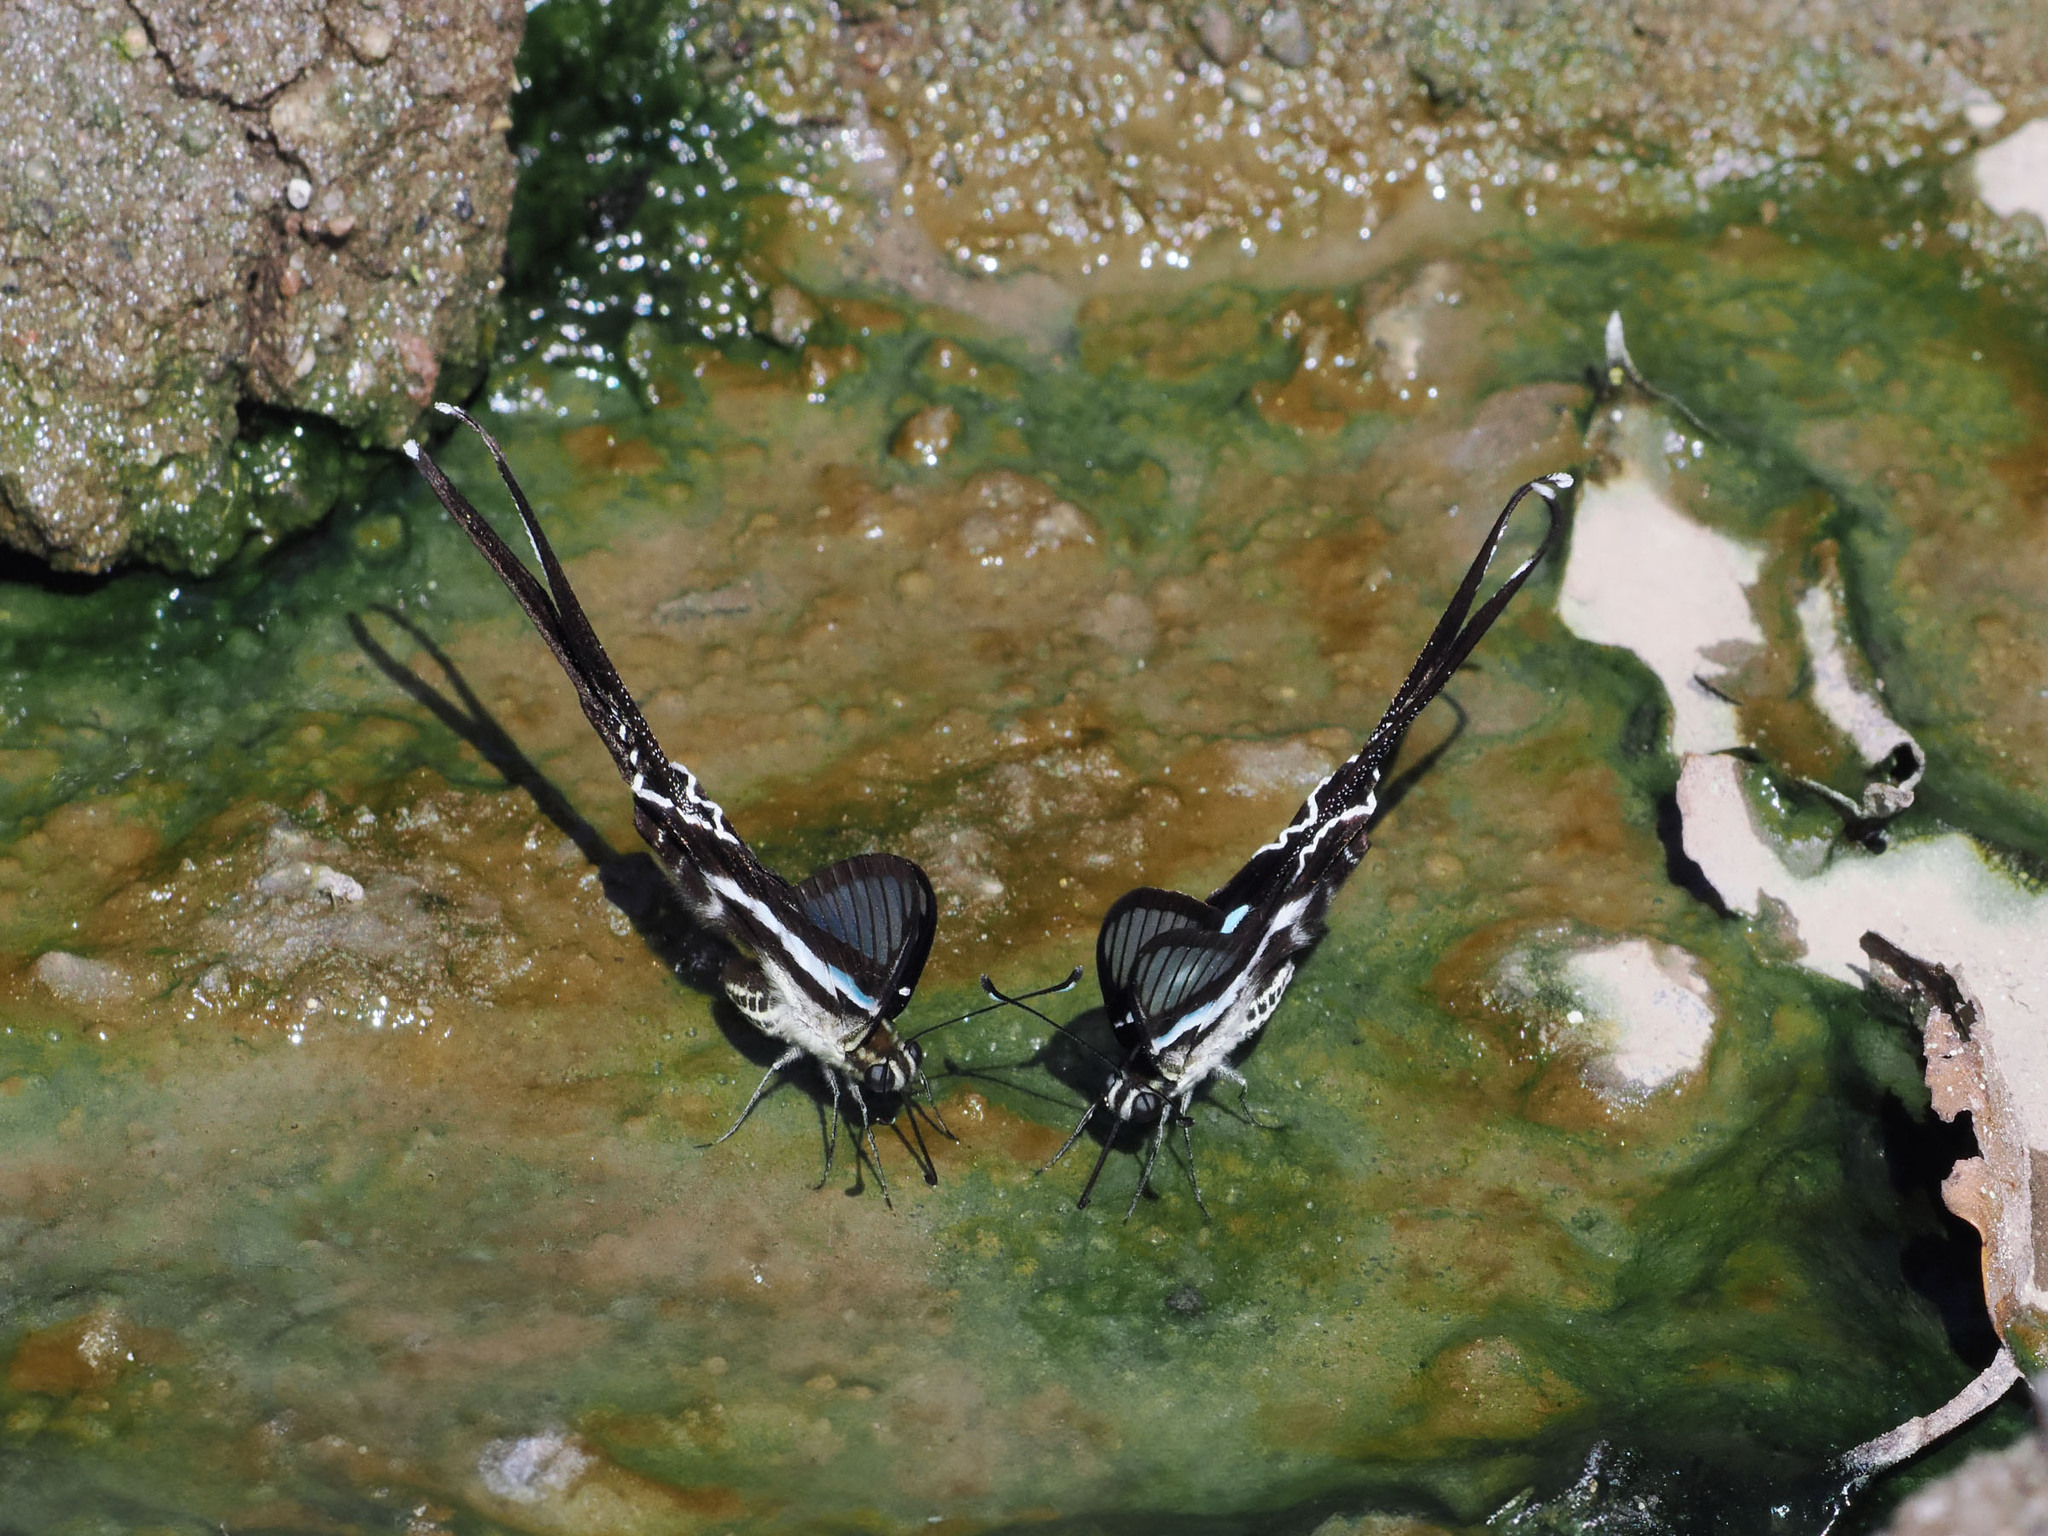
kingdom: Animalia
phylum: Arthropoda
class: Insecta
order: Lepidoptera
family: Papilionidae
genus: Lamproptera
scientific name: Lamproptera meges
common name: Green dragontail
